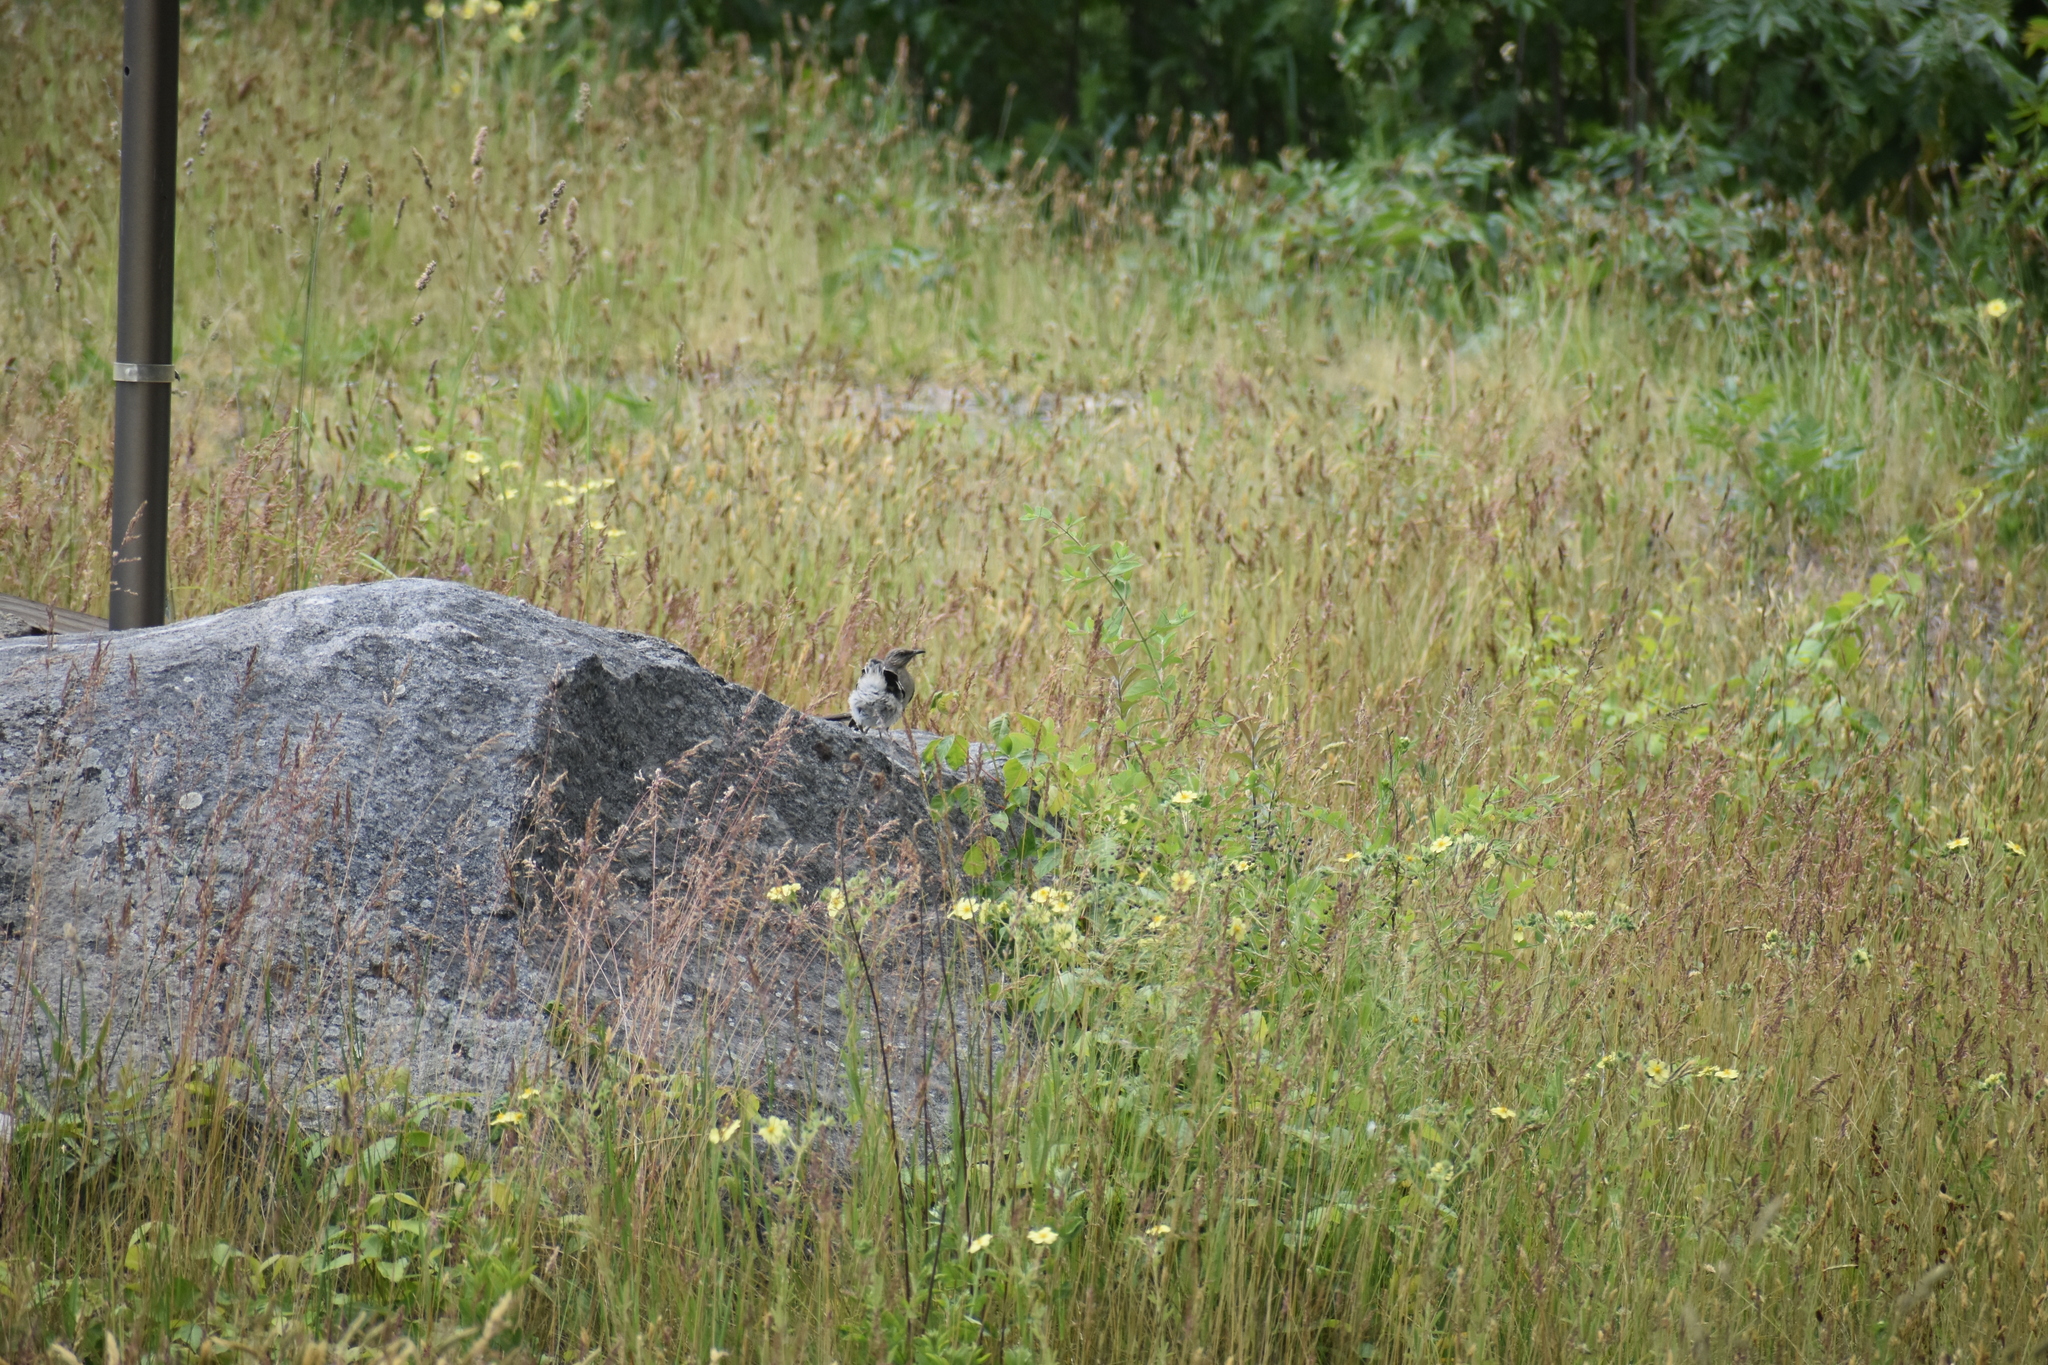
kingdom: Animalia
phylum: Chordata
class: Aves
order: Passeriformes
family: Mimidae
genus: Mimus
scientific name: Mimus polyglottos
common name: Northern mockingbird
